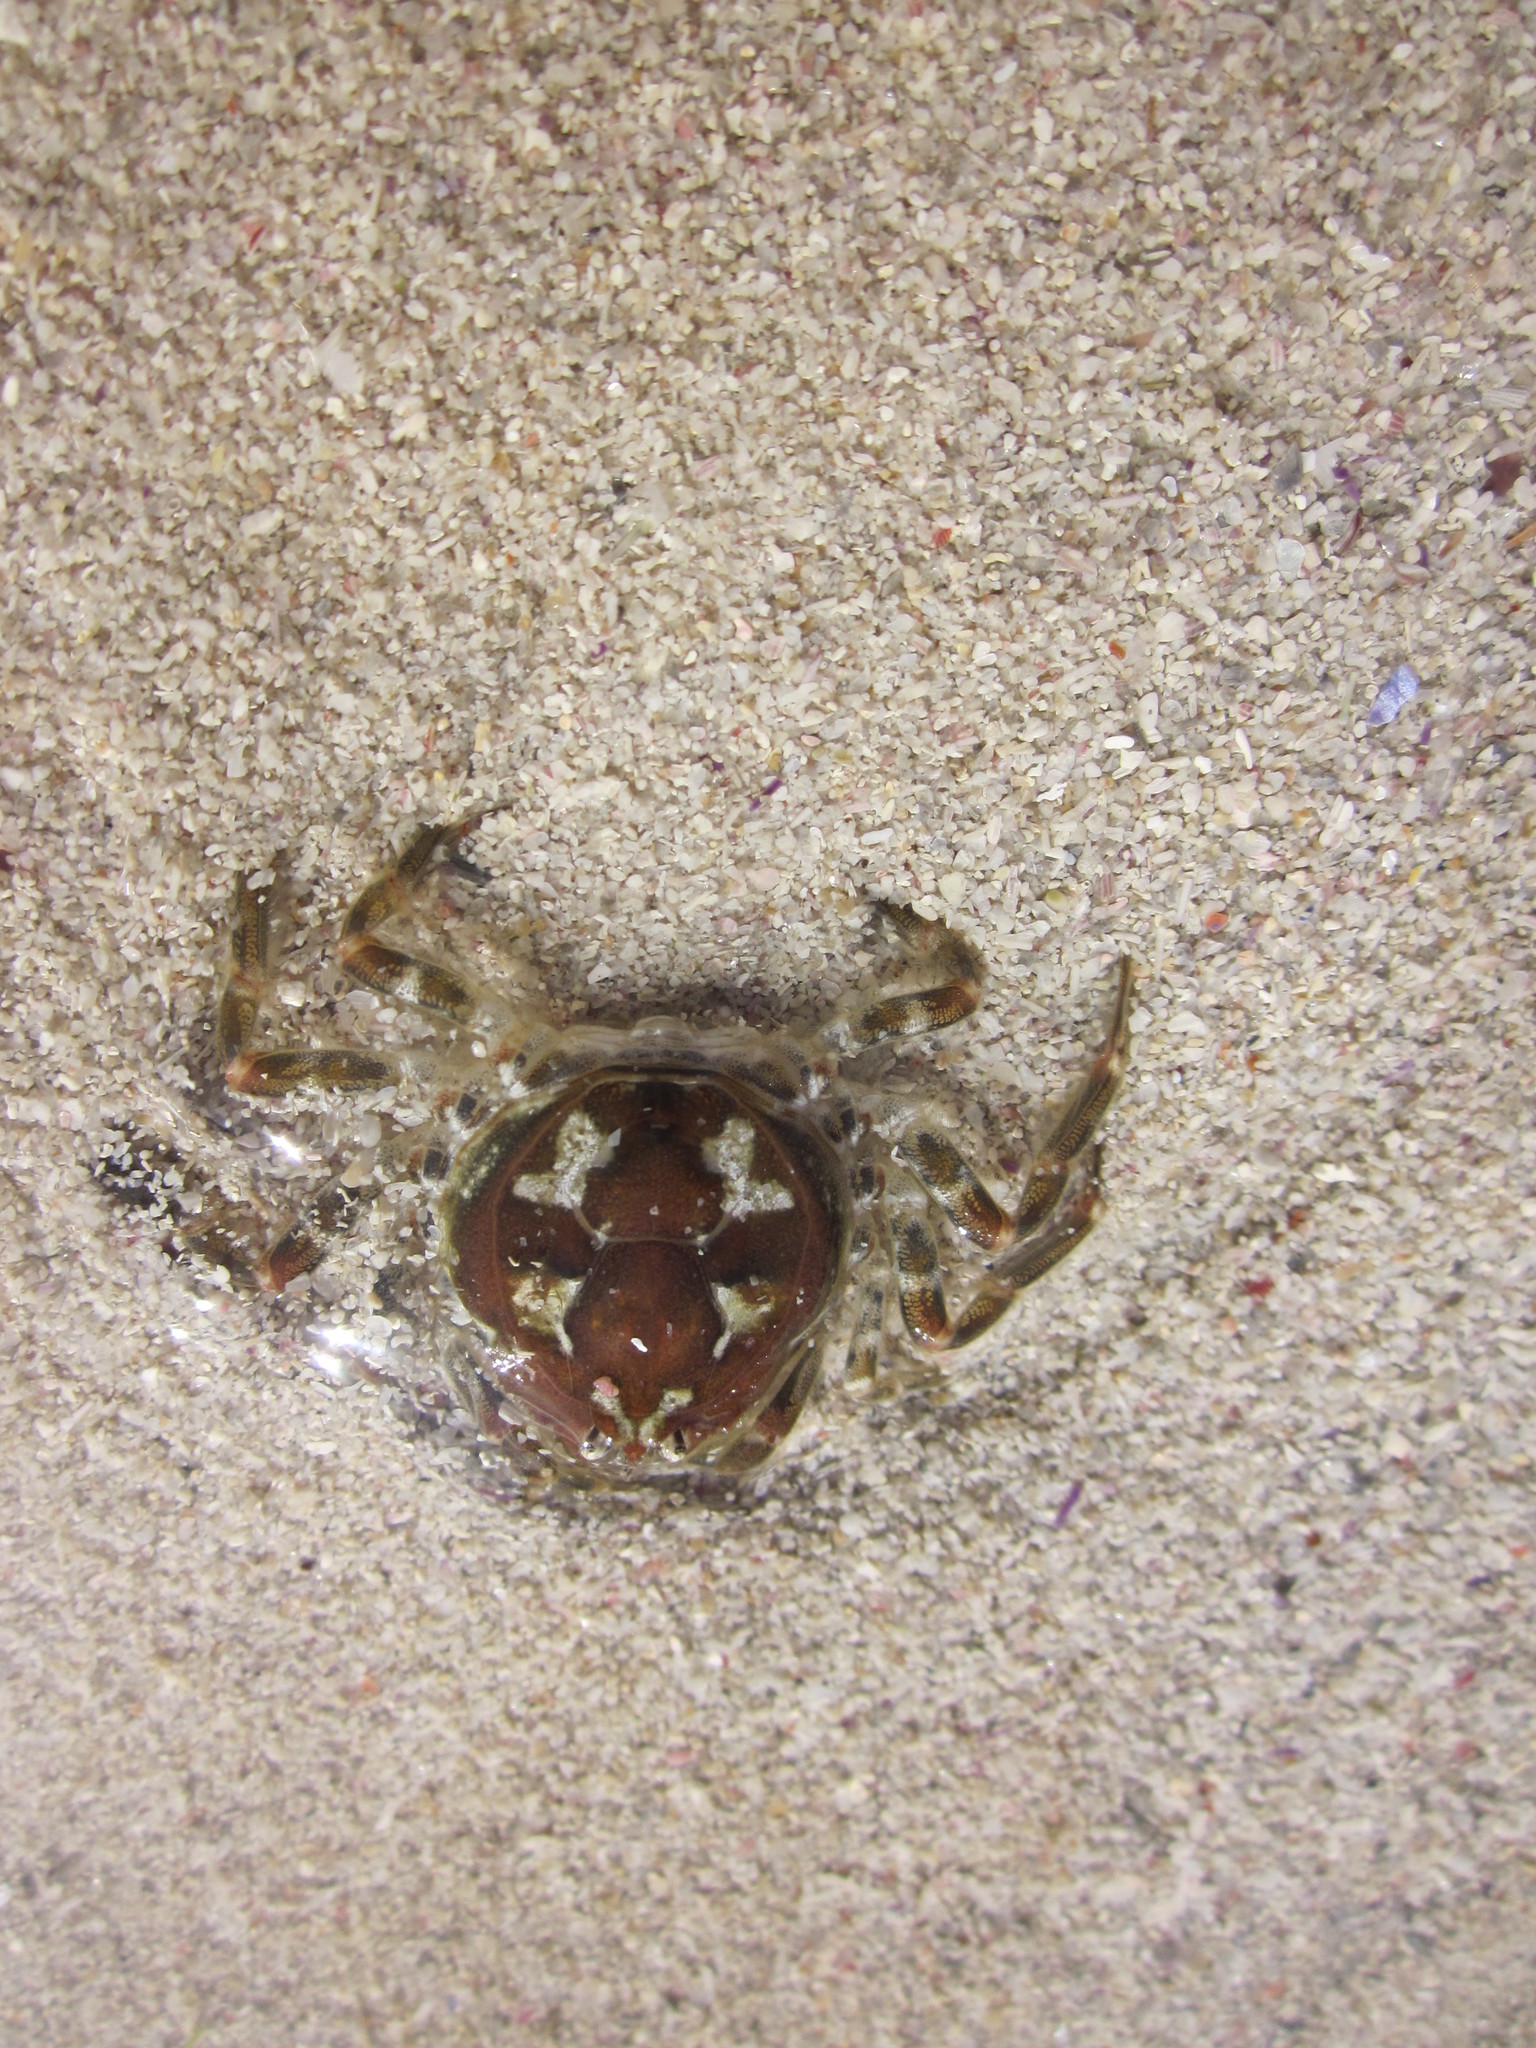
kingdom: Animalia
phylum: Arthropoda
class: Malacostraca
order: Decapoda
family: Hymenosomatidae
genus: Hymenosoma
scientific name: Hymenosoma orbiculare
